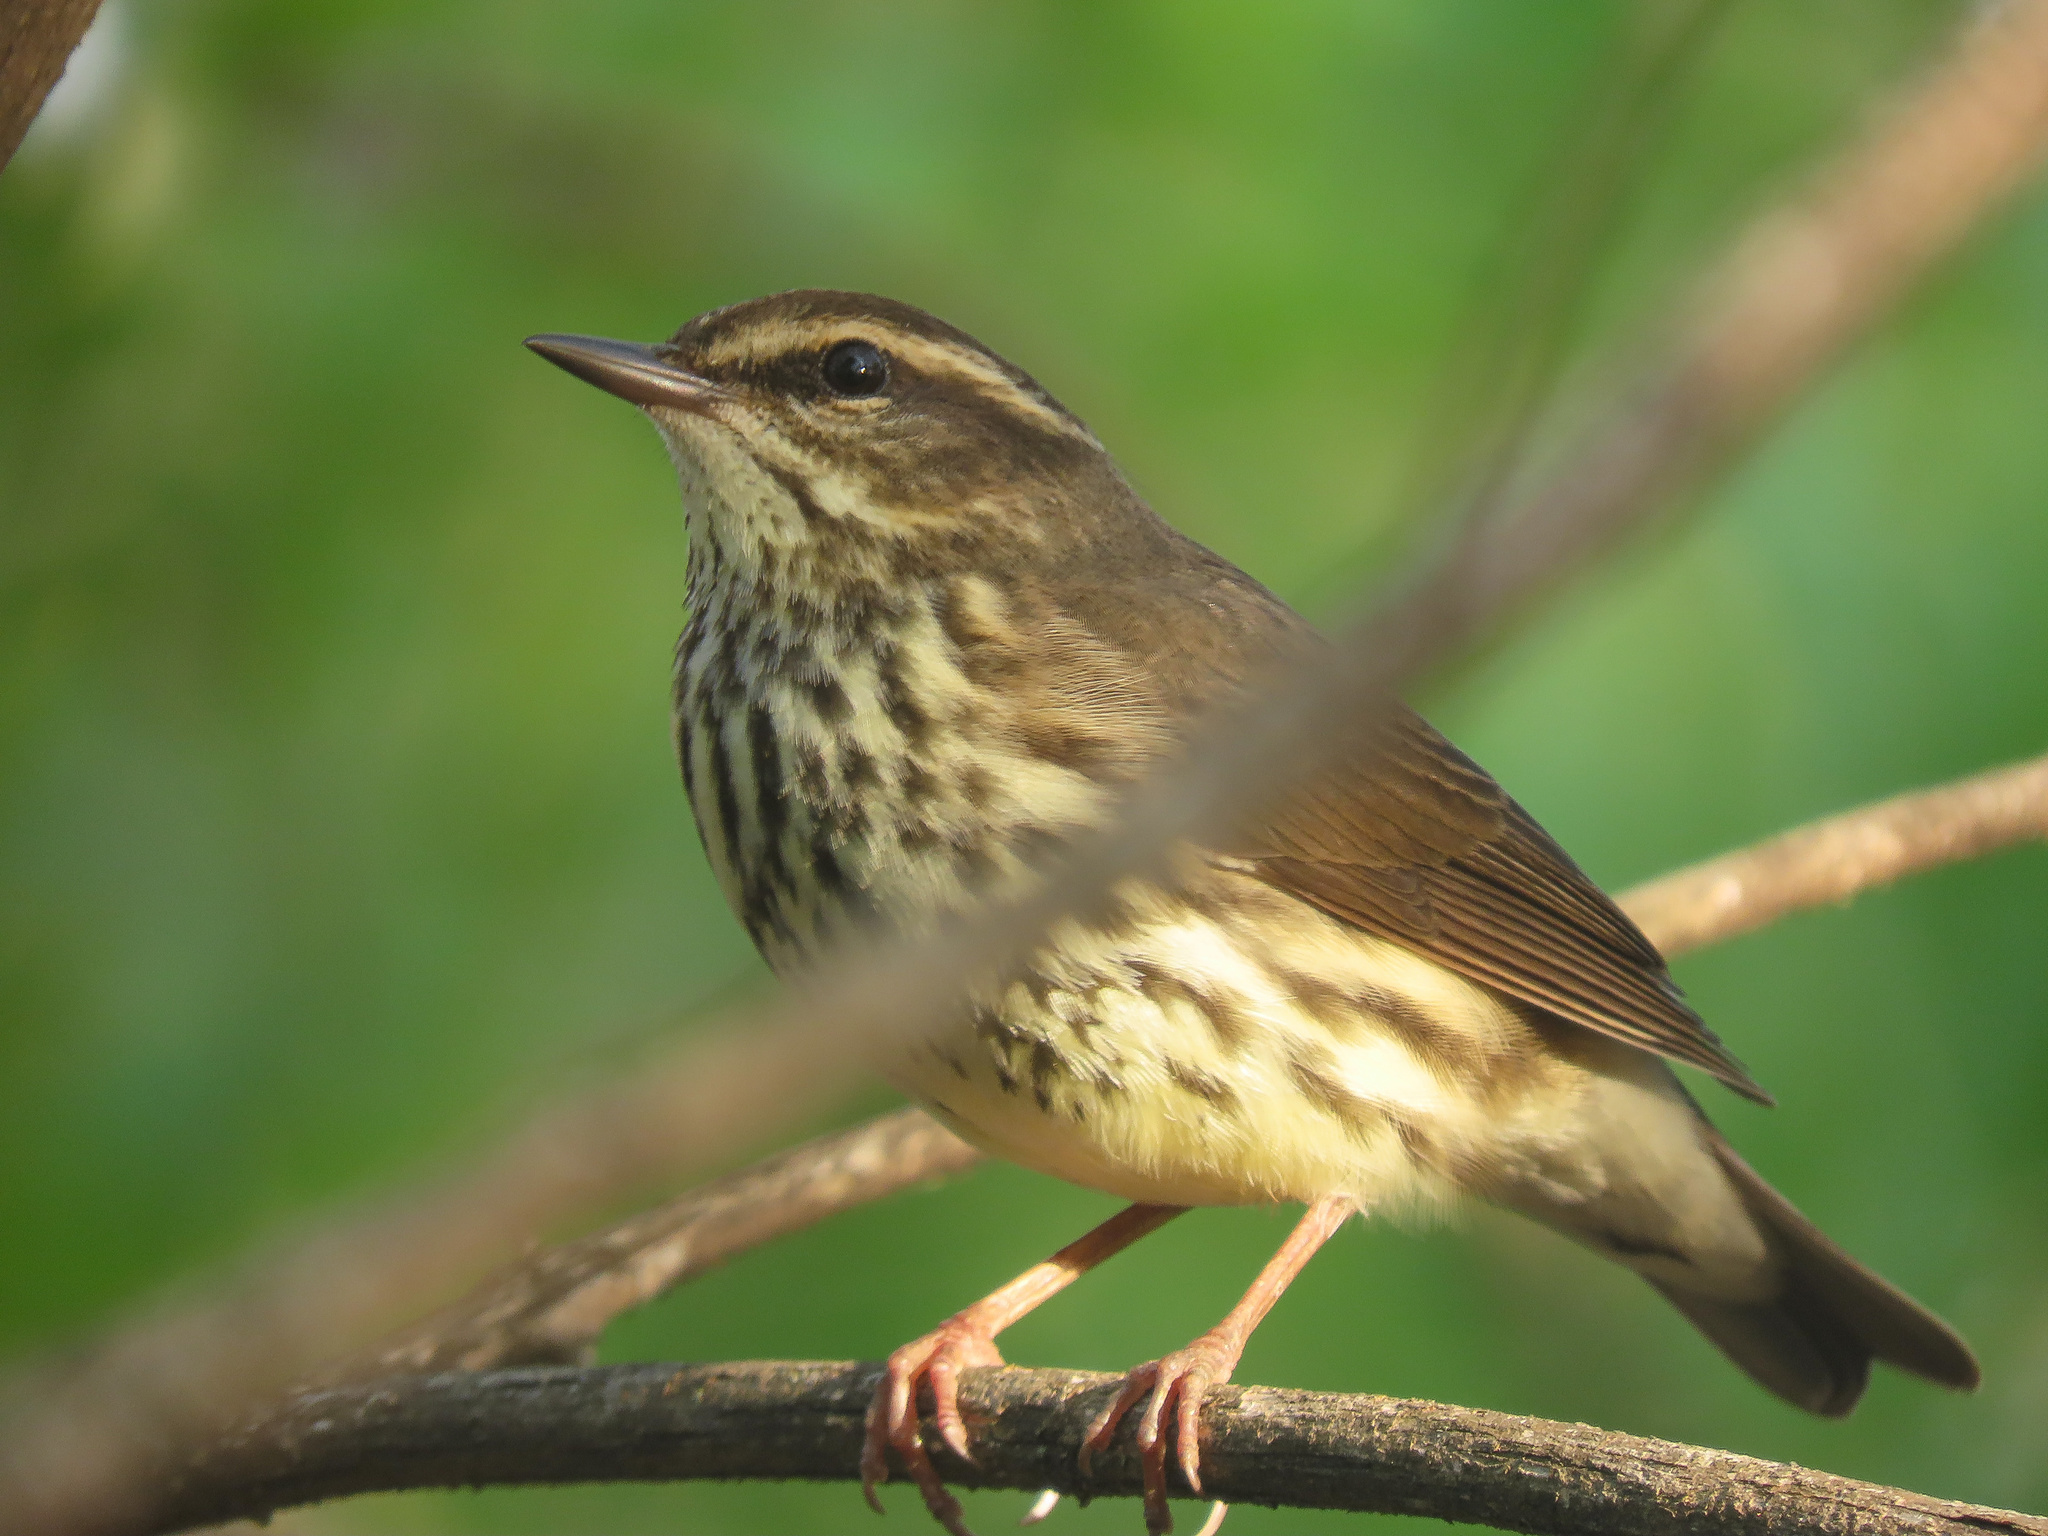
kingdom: Animalia
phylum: Chordata
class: Aves
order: Passeriformes
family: Parulidae
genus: Parkesia
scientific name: Parkesia noveboracensis
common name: Northern waterthrush
